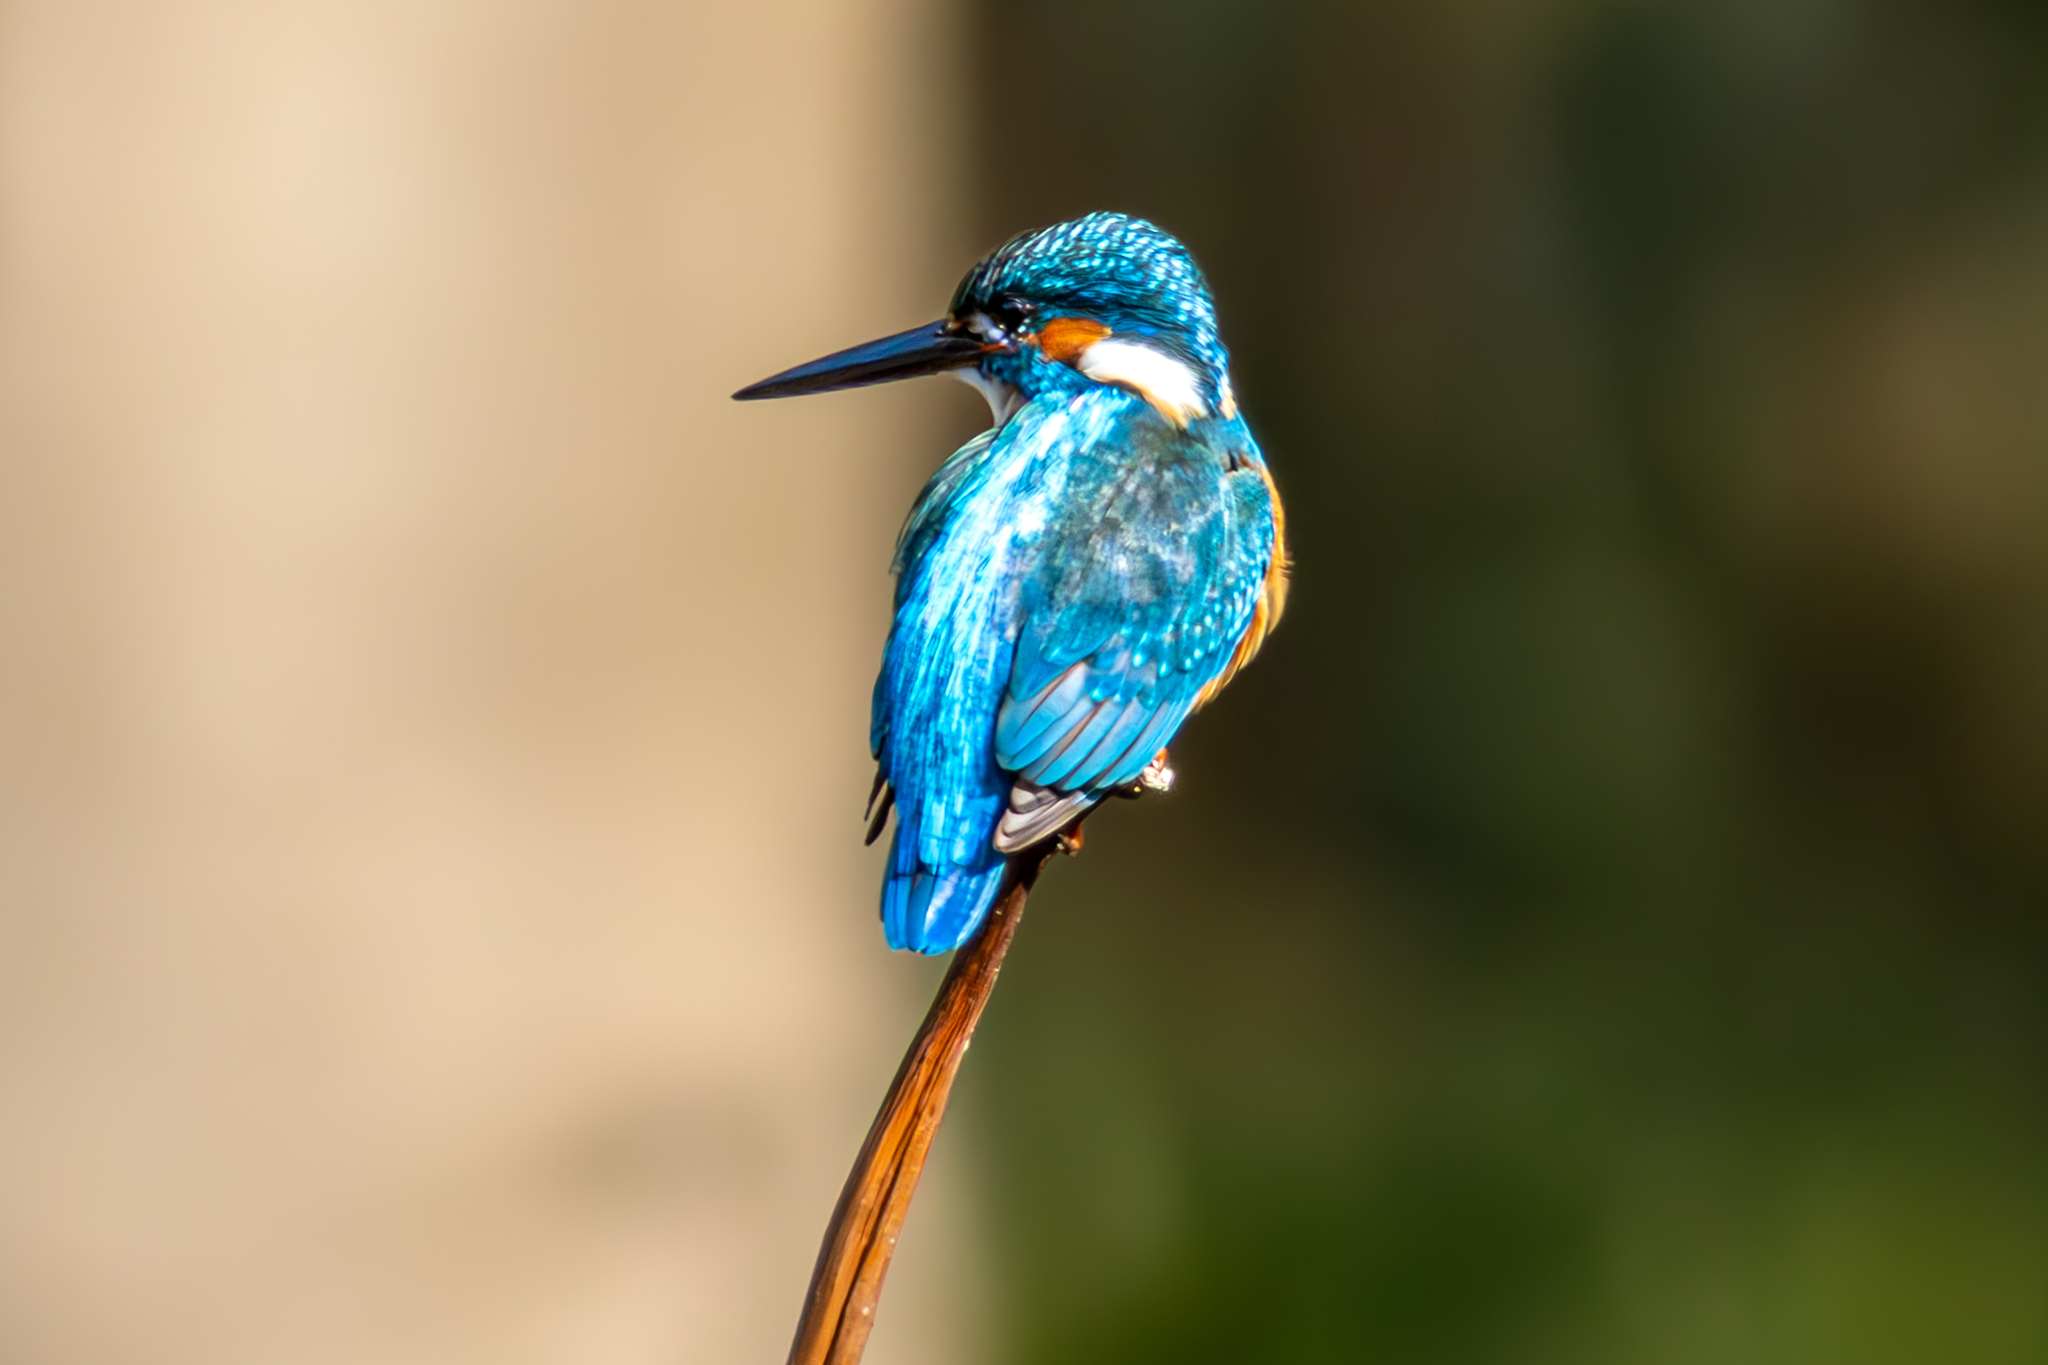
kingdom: Animalia
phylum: Chordata
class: Aves
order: Coraciiformes
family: Alcedinidae
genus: Alcedo
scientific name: Alcedo atthis
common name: Common kingfisher
